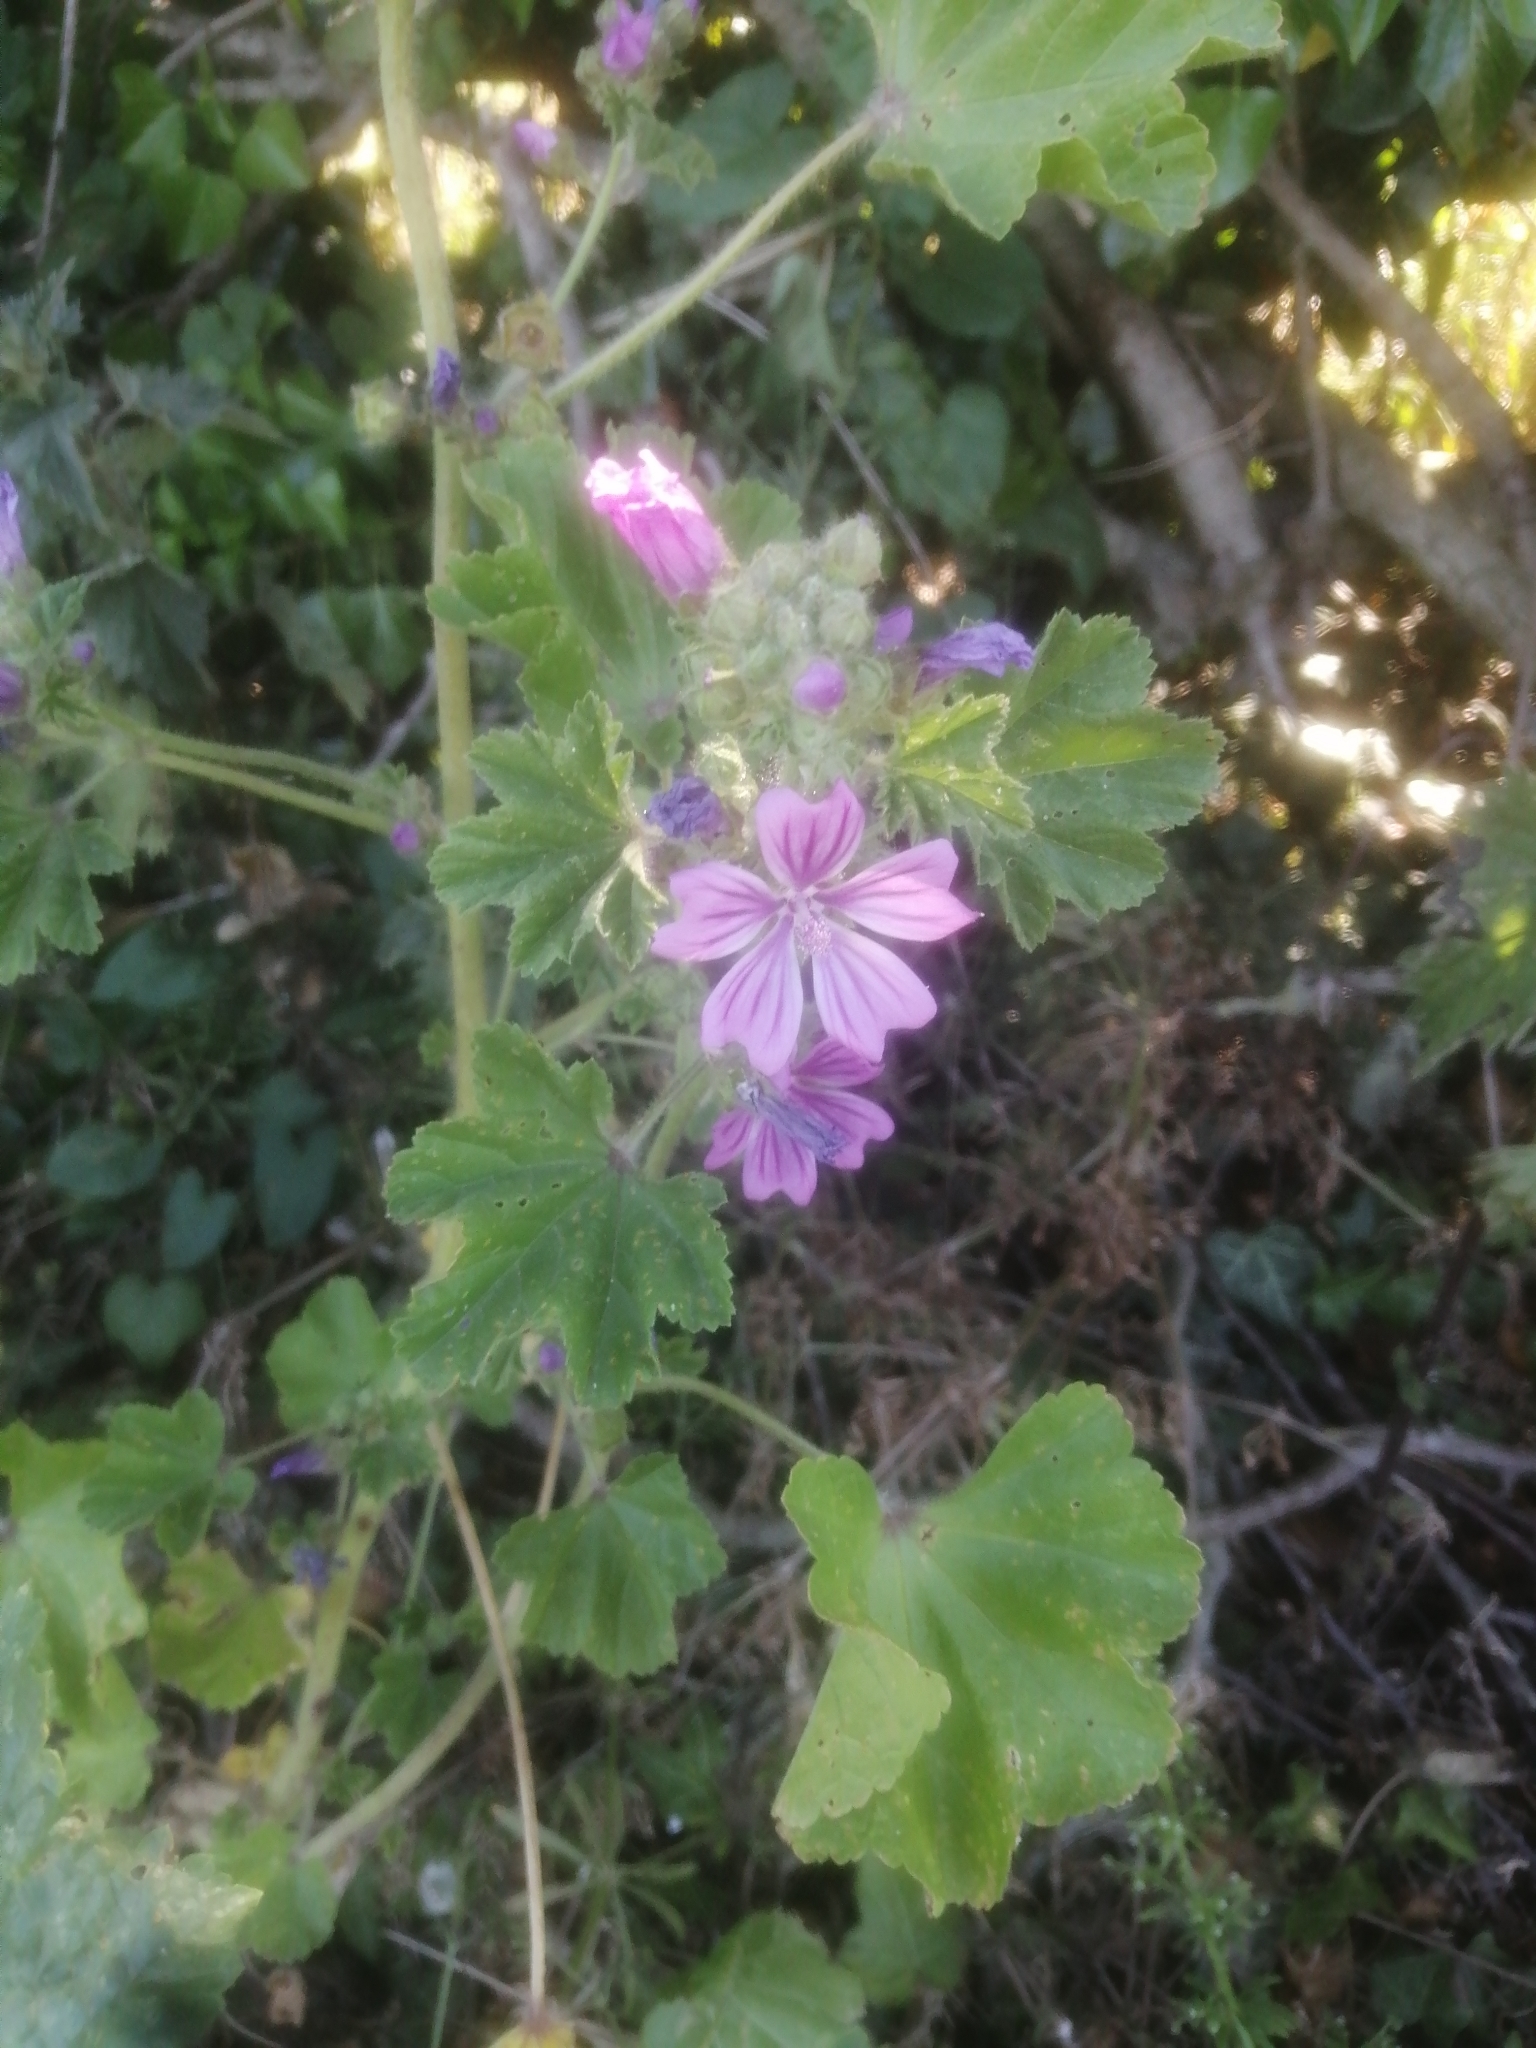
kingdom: Plantae
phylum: Tracheophyta
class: Magnoliopsida
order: Malvales
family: Malvaceae
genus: Malva
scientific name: Malva sylvestris
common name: Common mallow
